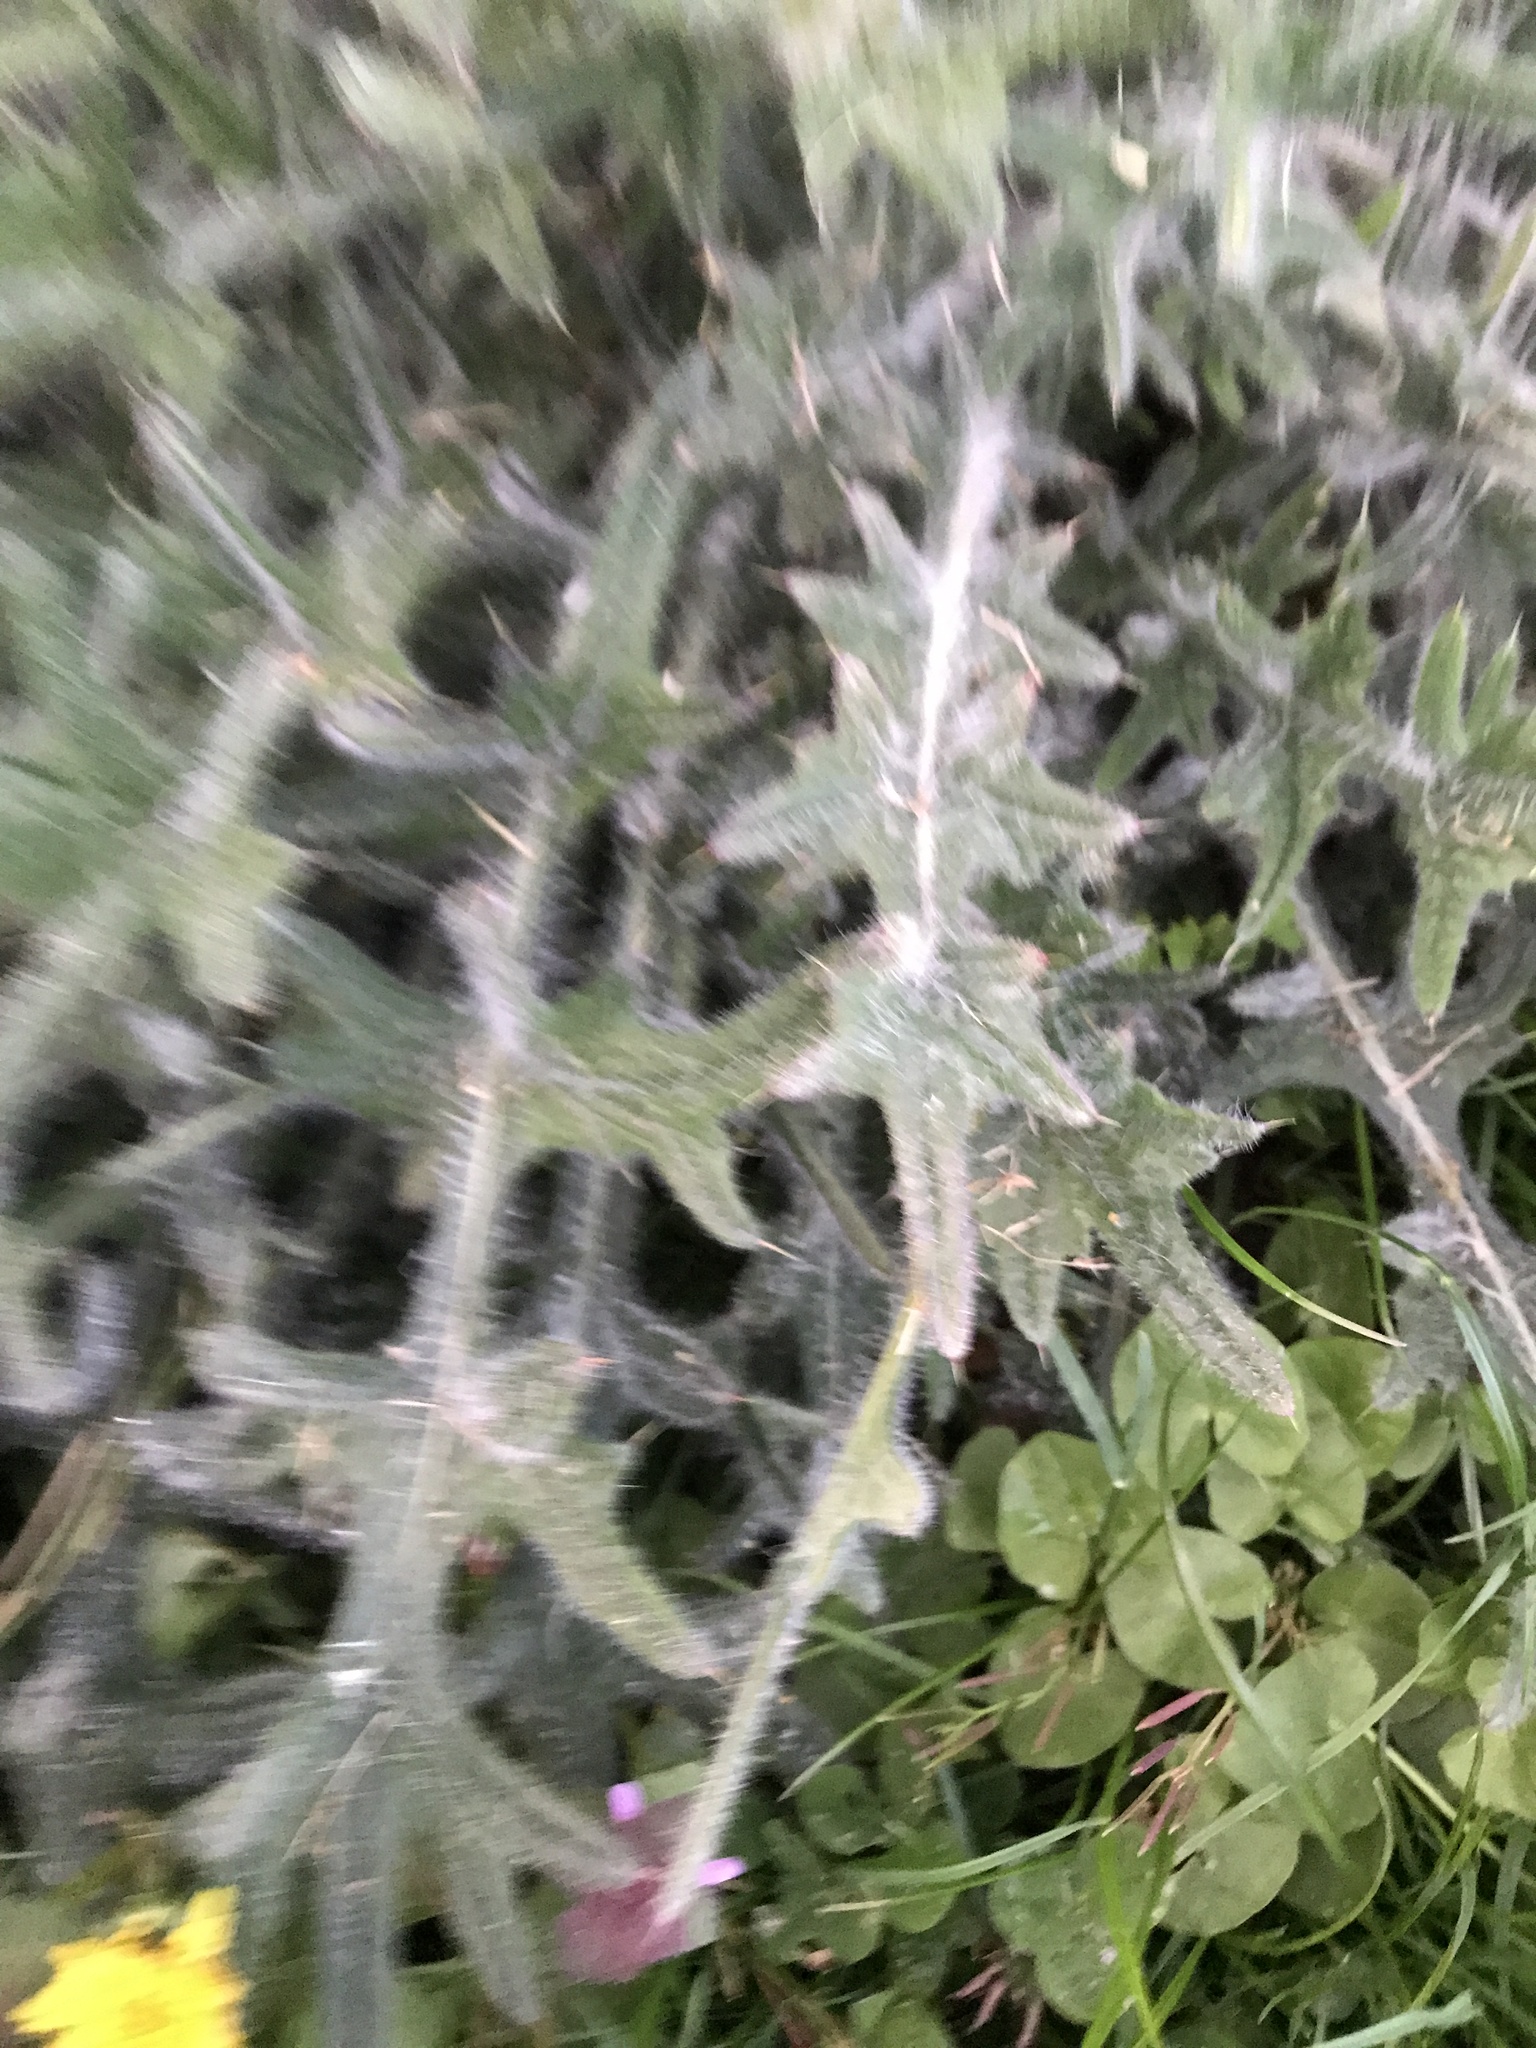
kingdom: Plantae
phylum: Tracheophyta
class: Magnoliopsida
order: Asterales
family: Asteraceae
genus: Cirsium
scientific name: Cirsium vulgare
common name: Bull thistle
